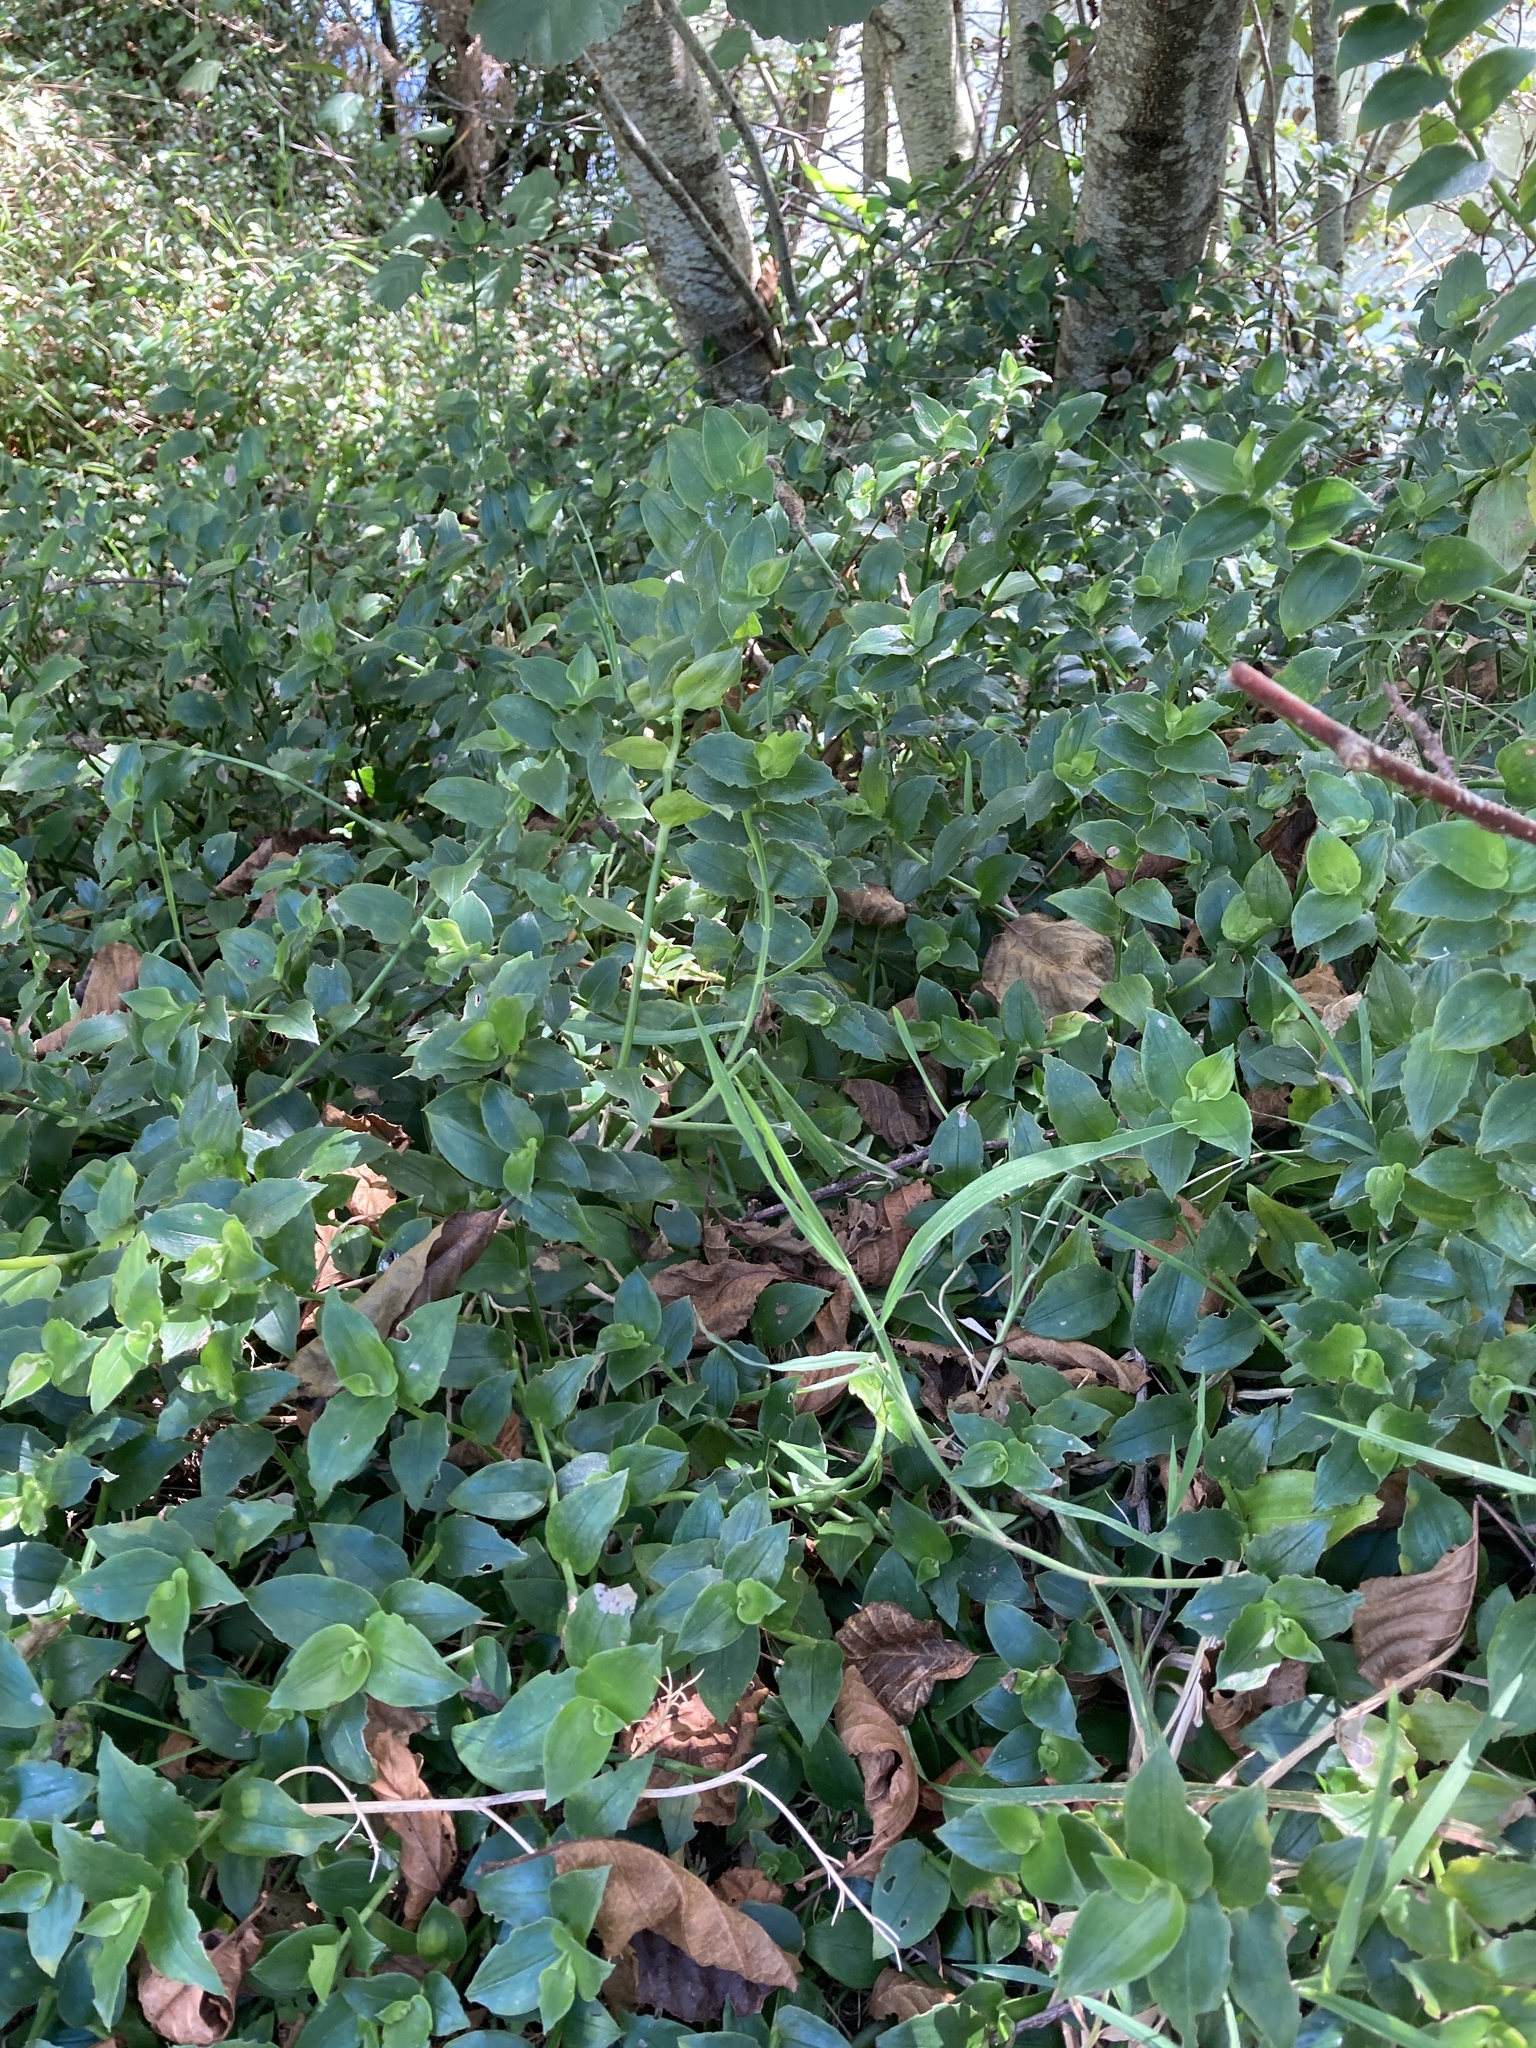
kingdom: Plantae
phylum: Tracheophyta
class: Liliopsida
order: Commelinales
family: Commelinaceae
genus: Tradescantia
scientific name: Tradescantia fluminensis
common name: Wandering-jew
